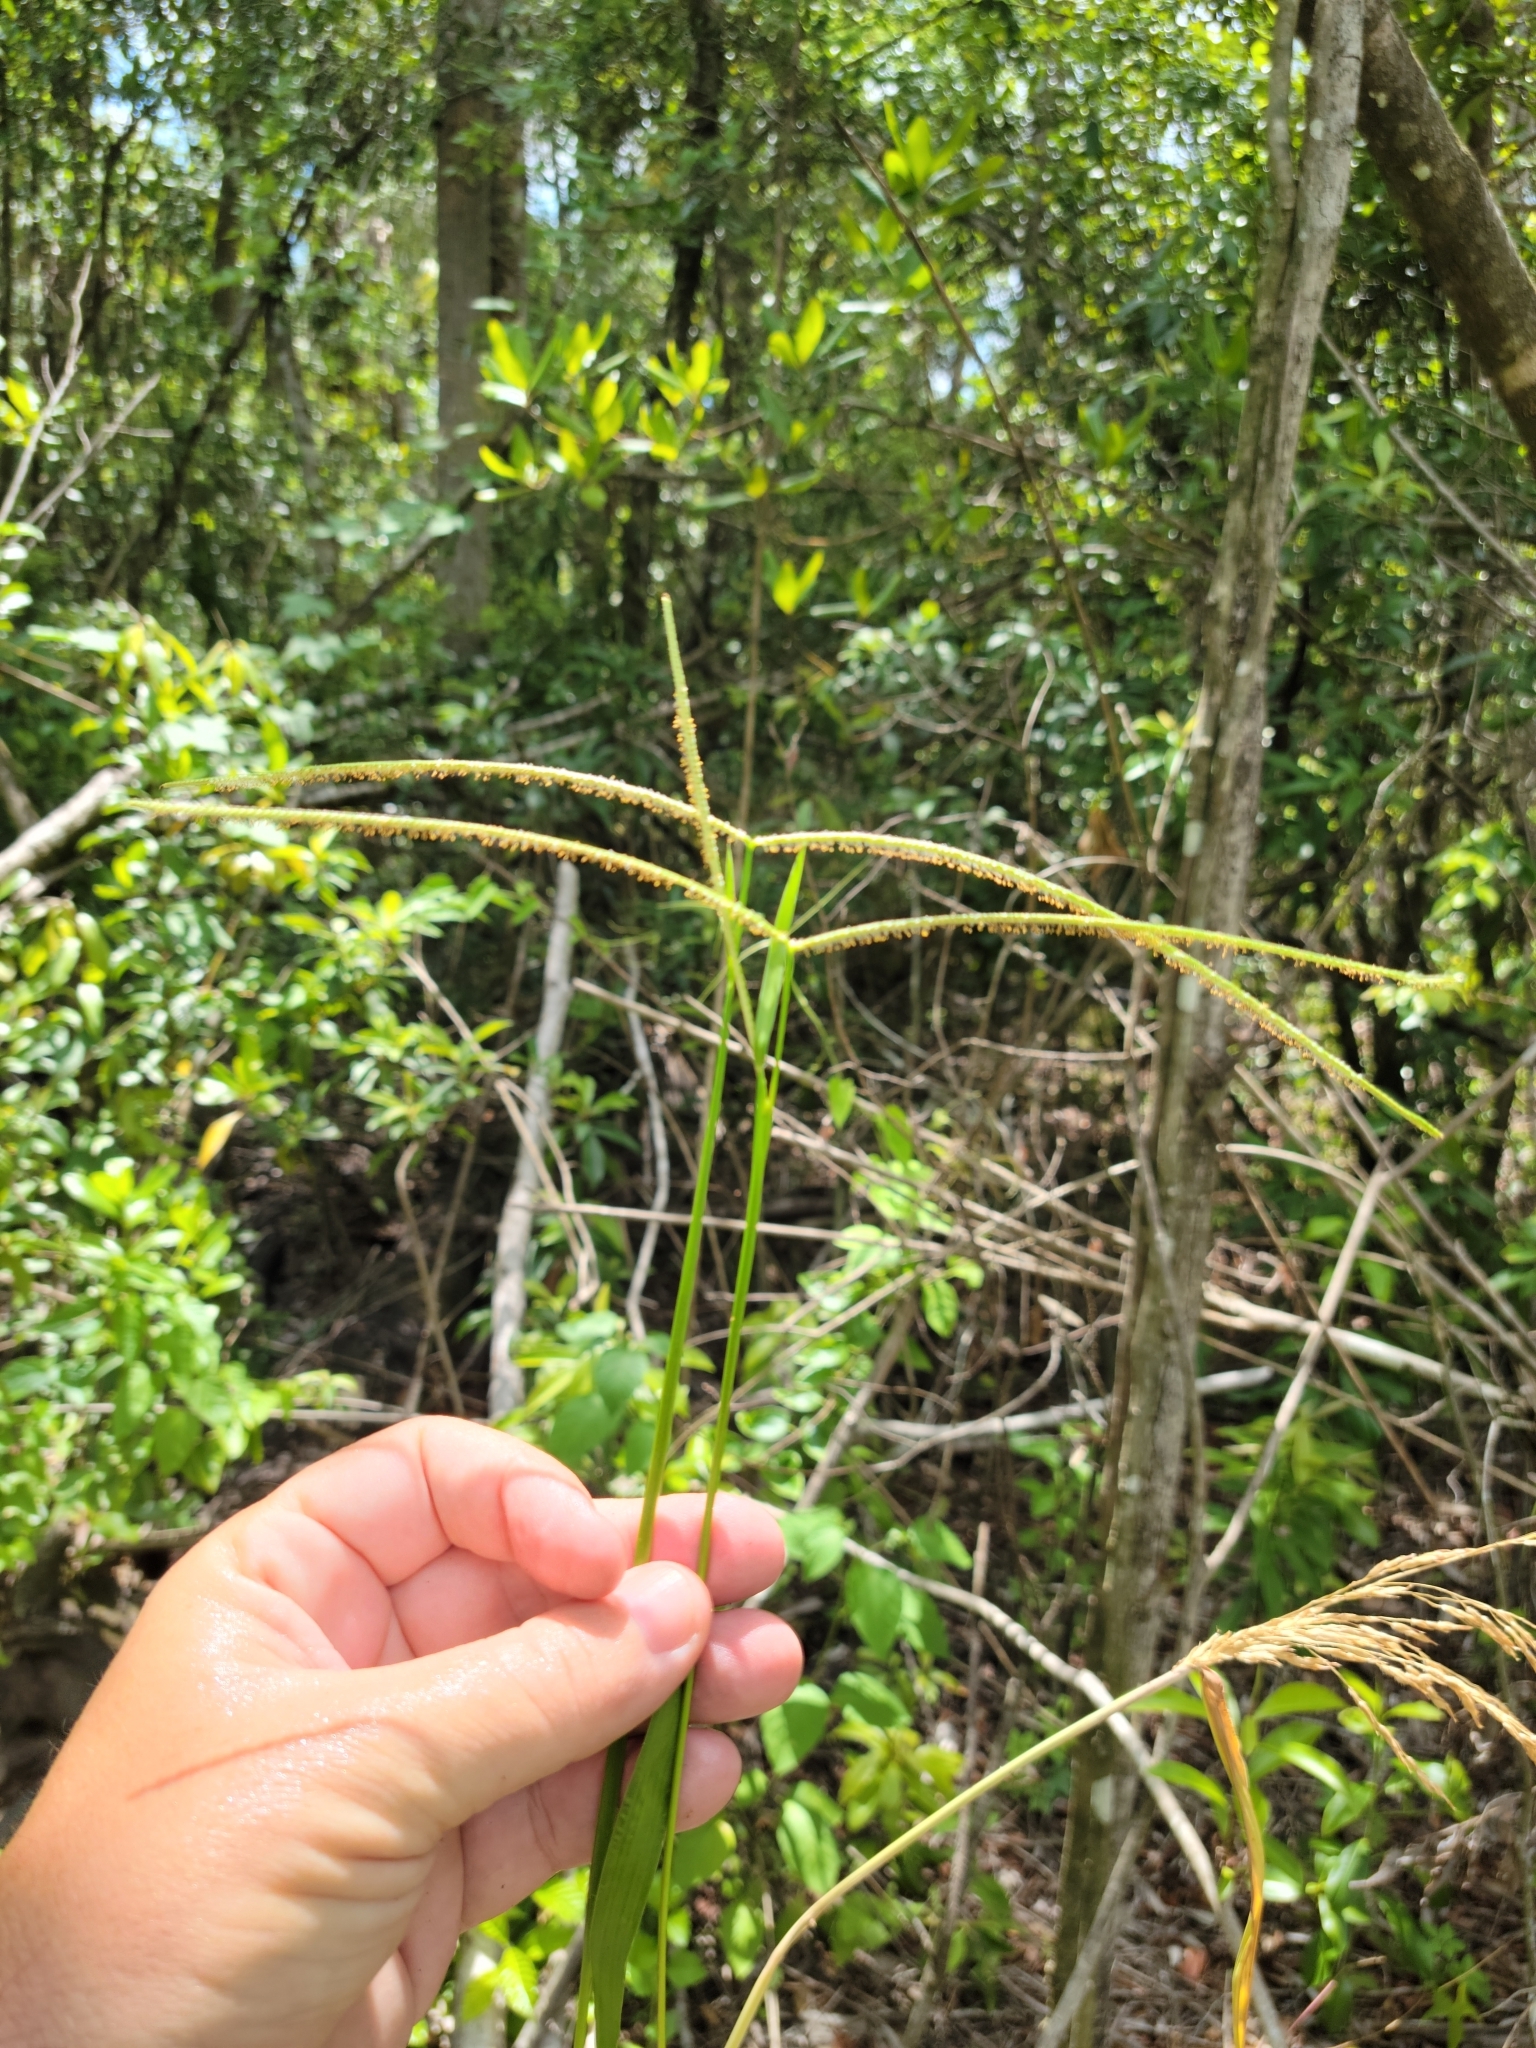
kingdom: Plantae
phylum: Tracheophyta
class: Liliopsida
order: Poales
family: Poaceae
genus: Paspalum
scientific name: Paspalum conjugatum
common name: Hilograss
